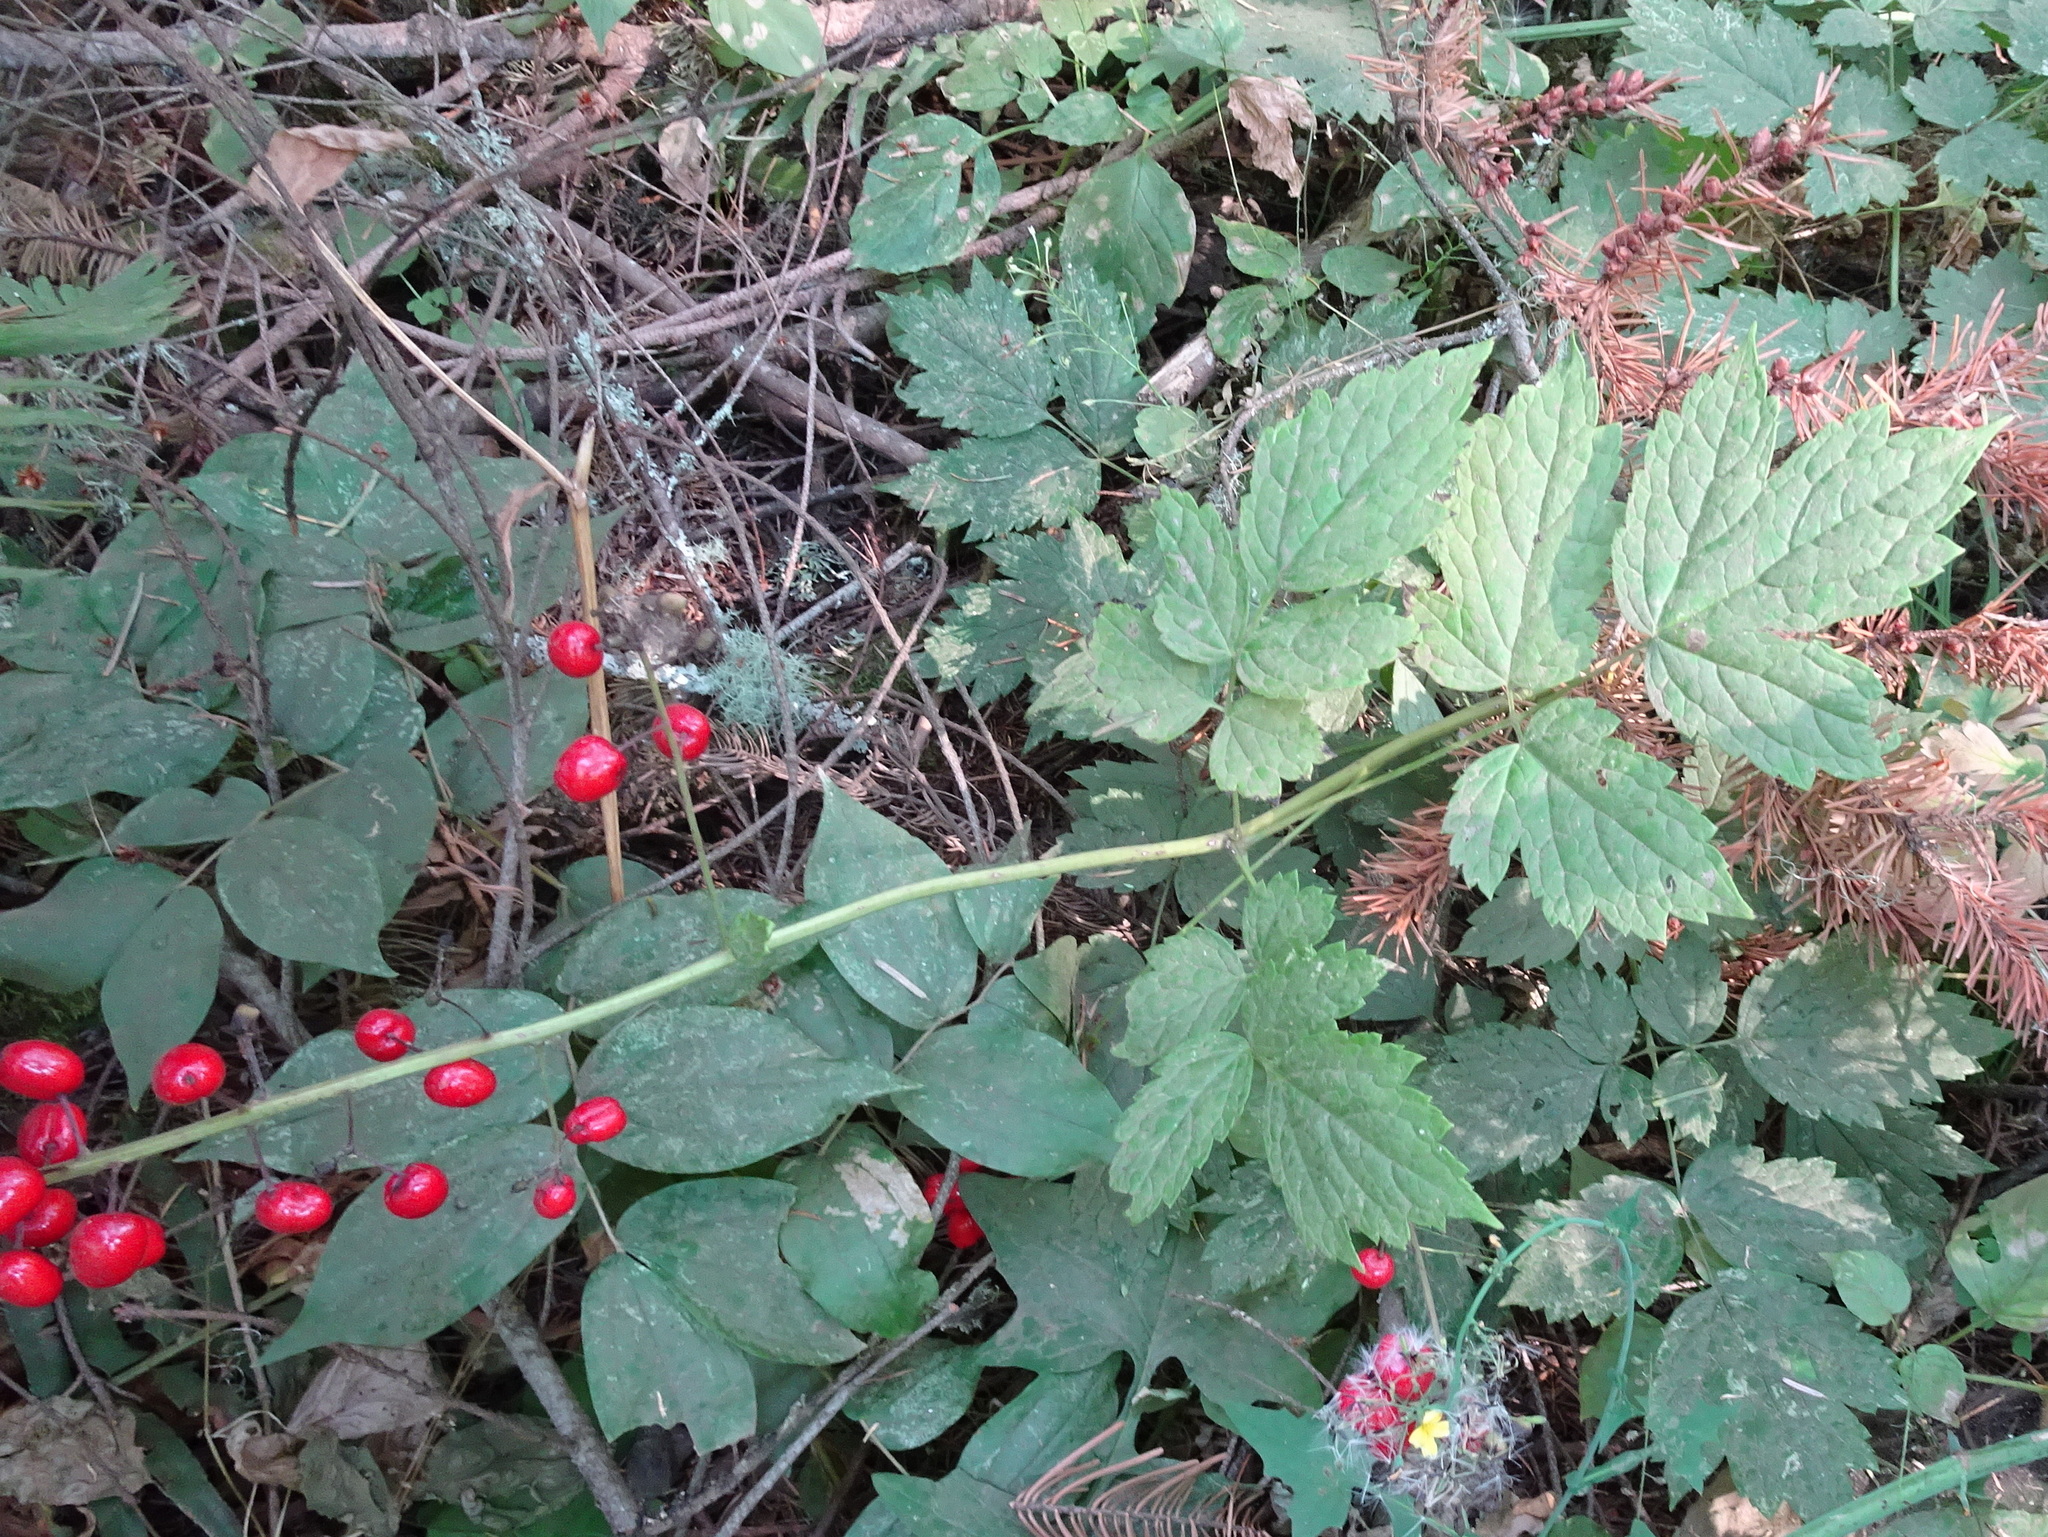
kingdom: Plantae
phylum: Tracheophyta
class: Magnoliopsida
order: Ranunculales
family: Ranunculaceae
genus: Actaea
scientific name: Actaea rubra
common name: Red baneberry
